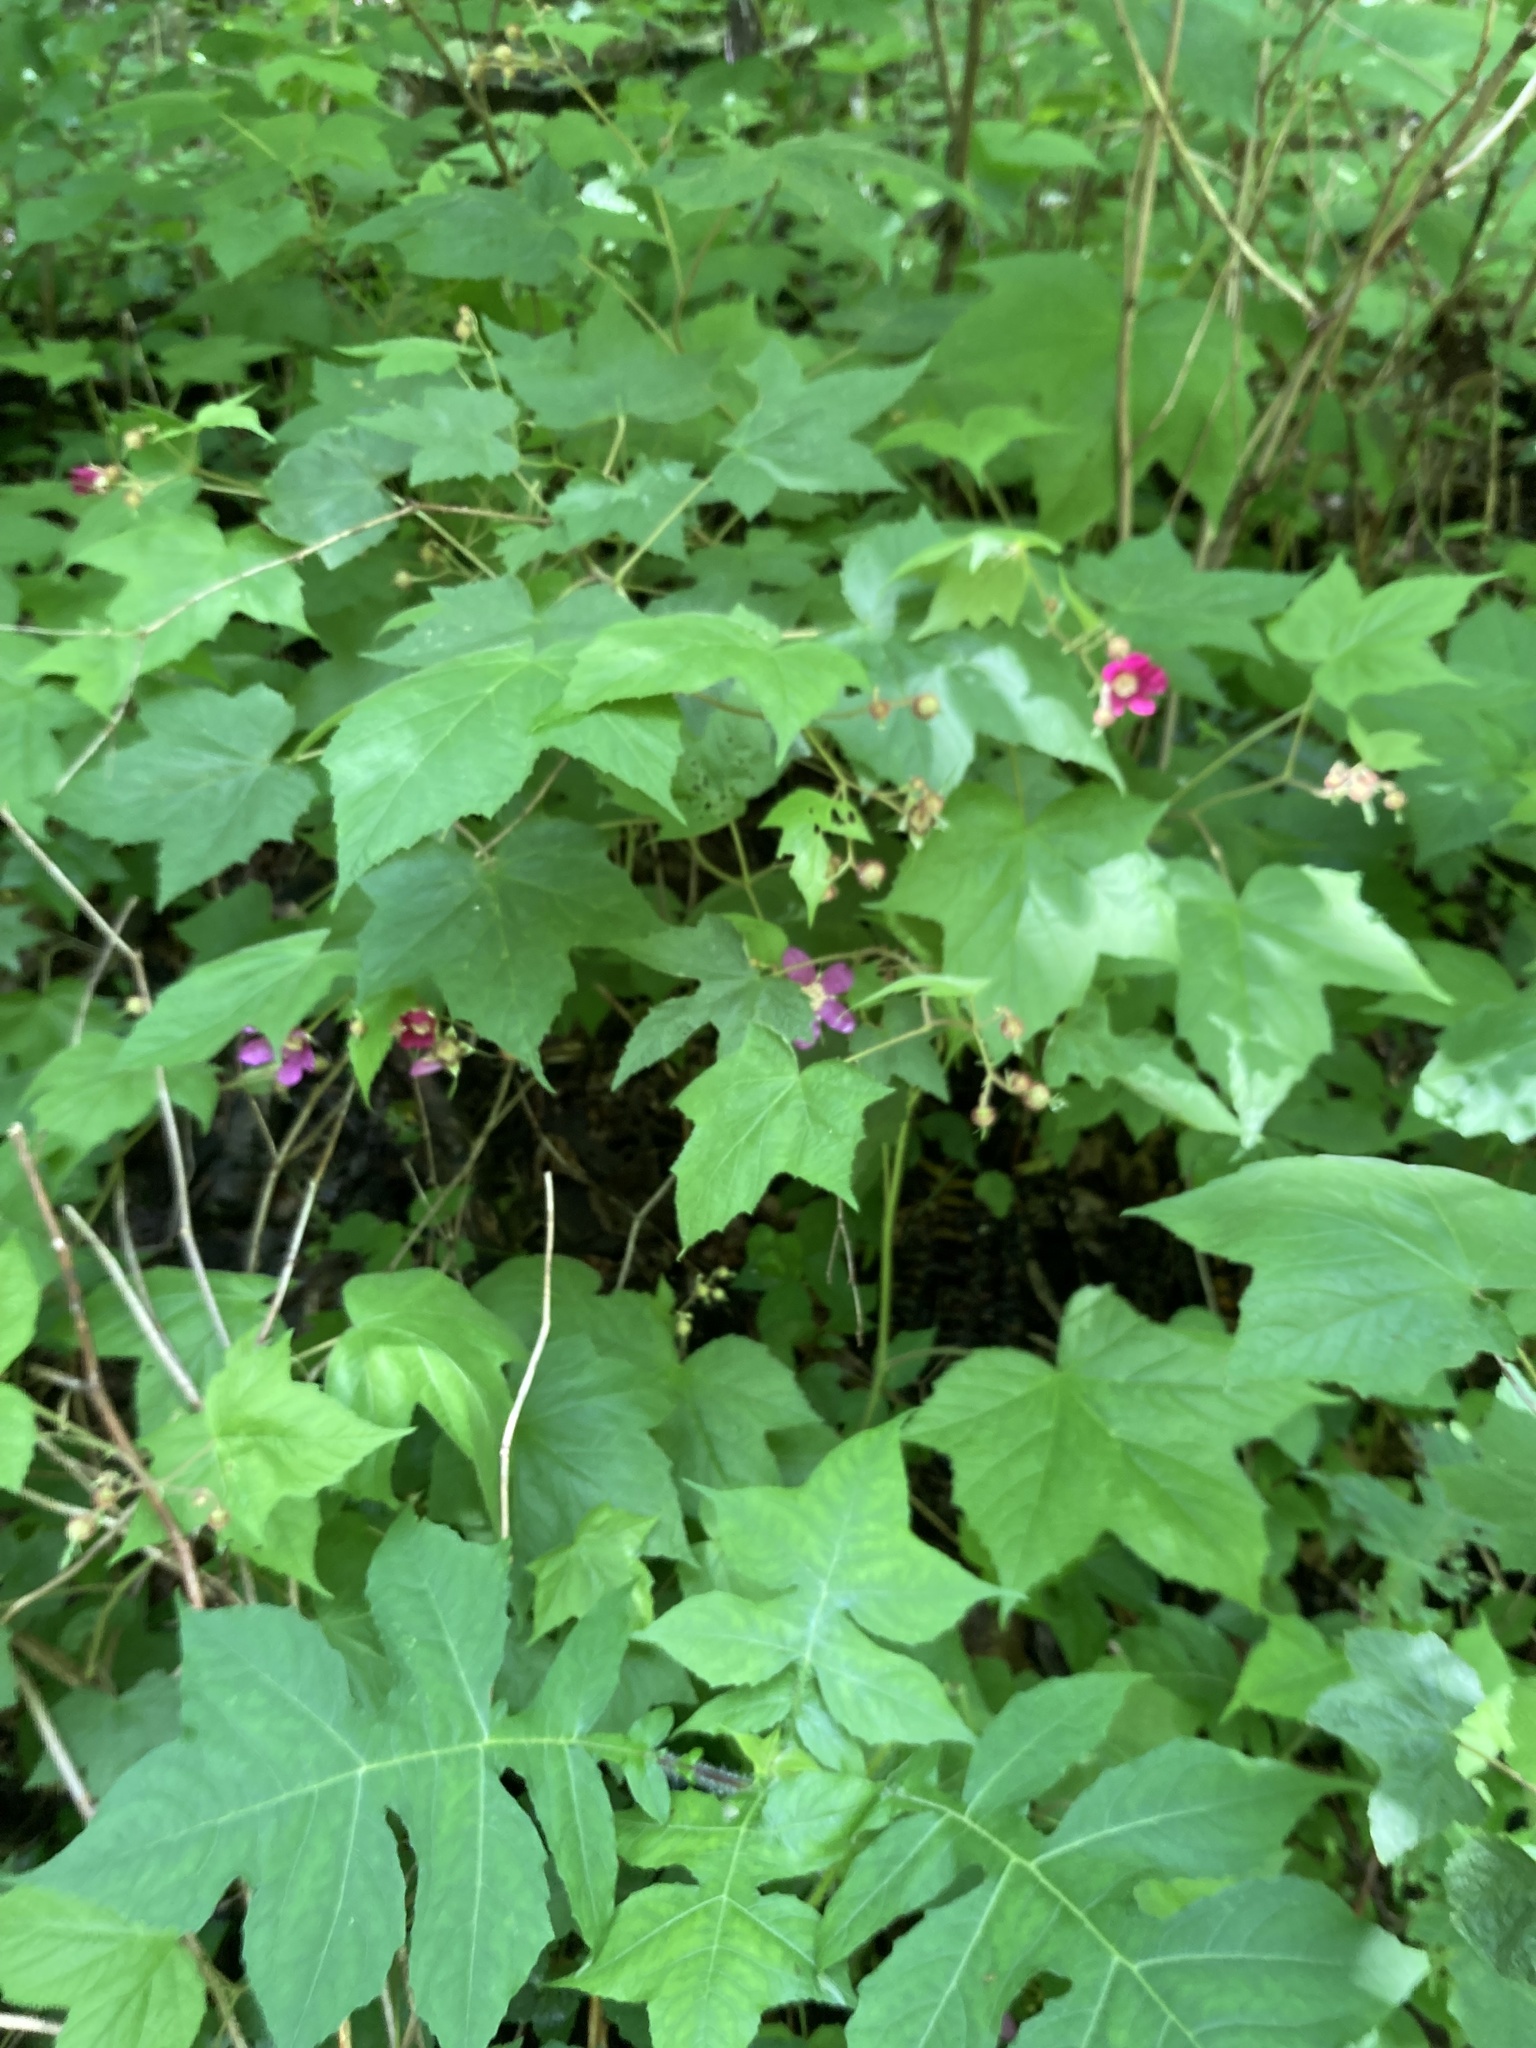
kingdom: Plantae
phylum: Tracheophyta
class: Magnoliopsida
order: Rosales
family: Rosaceae
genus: Rubus
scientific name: Rubus odoratus
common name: Purple-flowered raspberry
